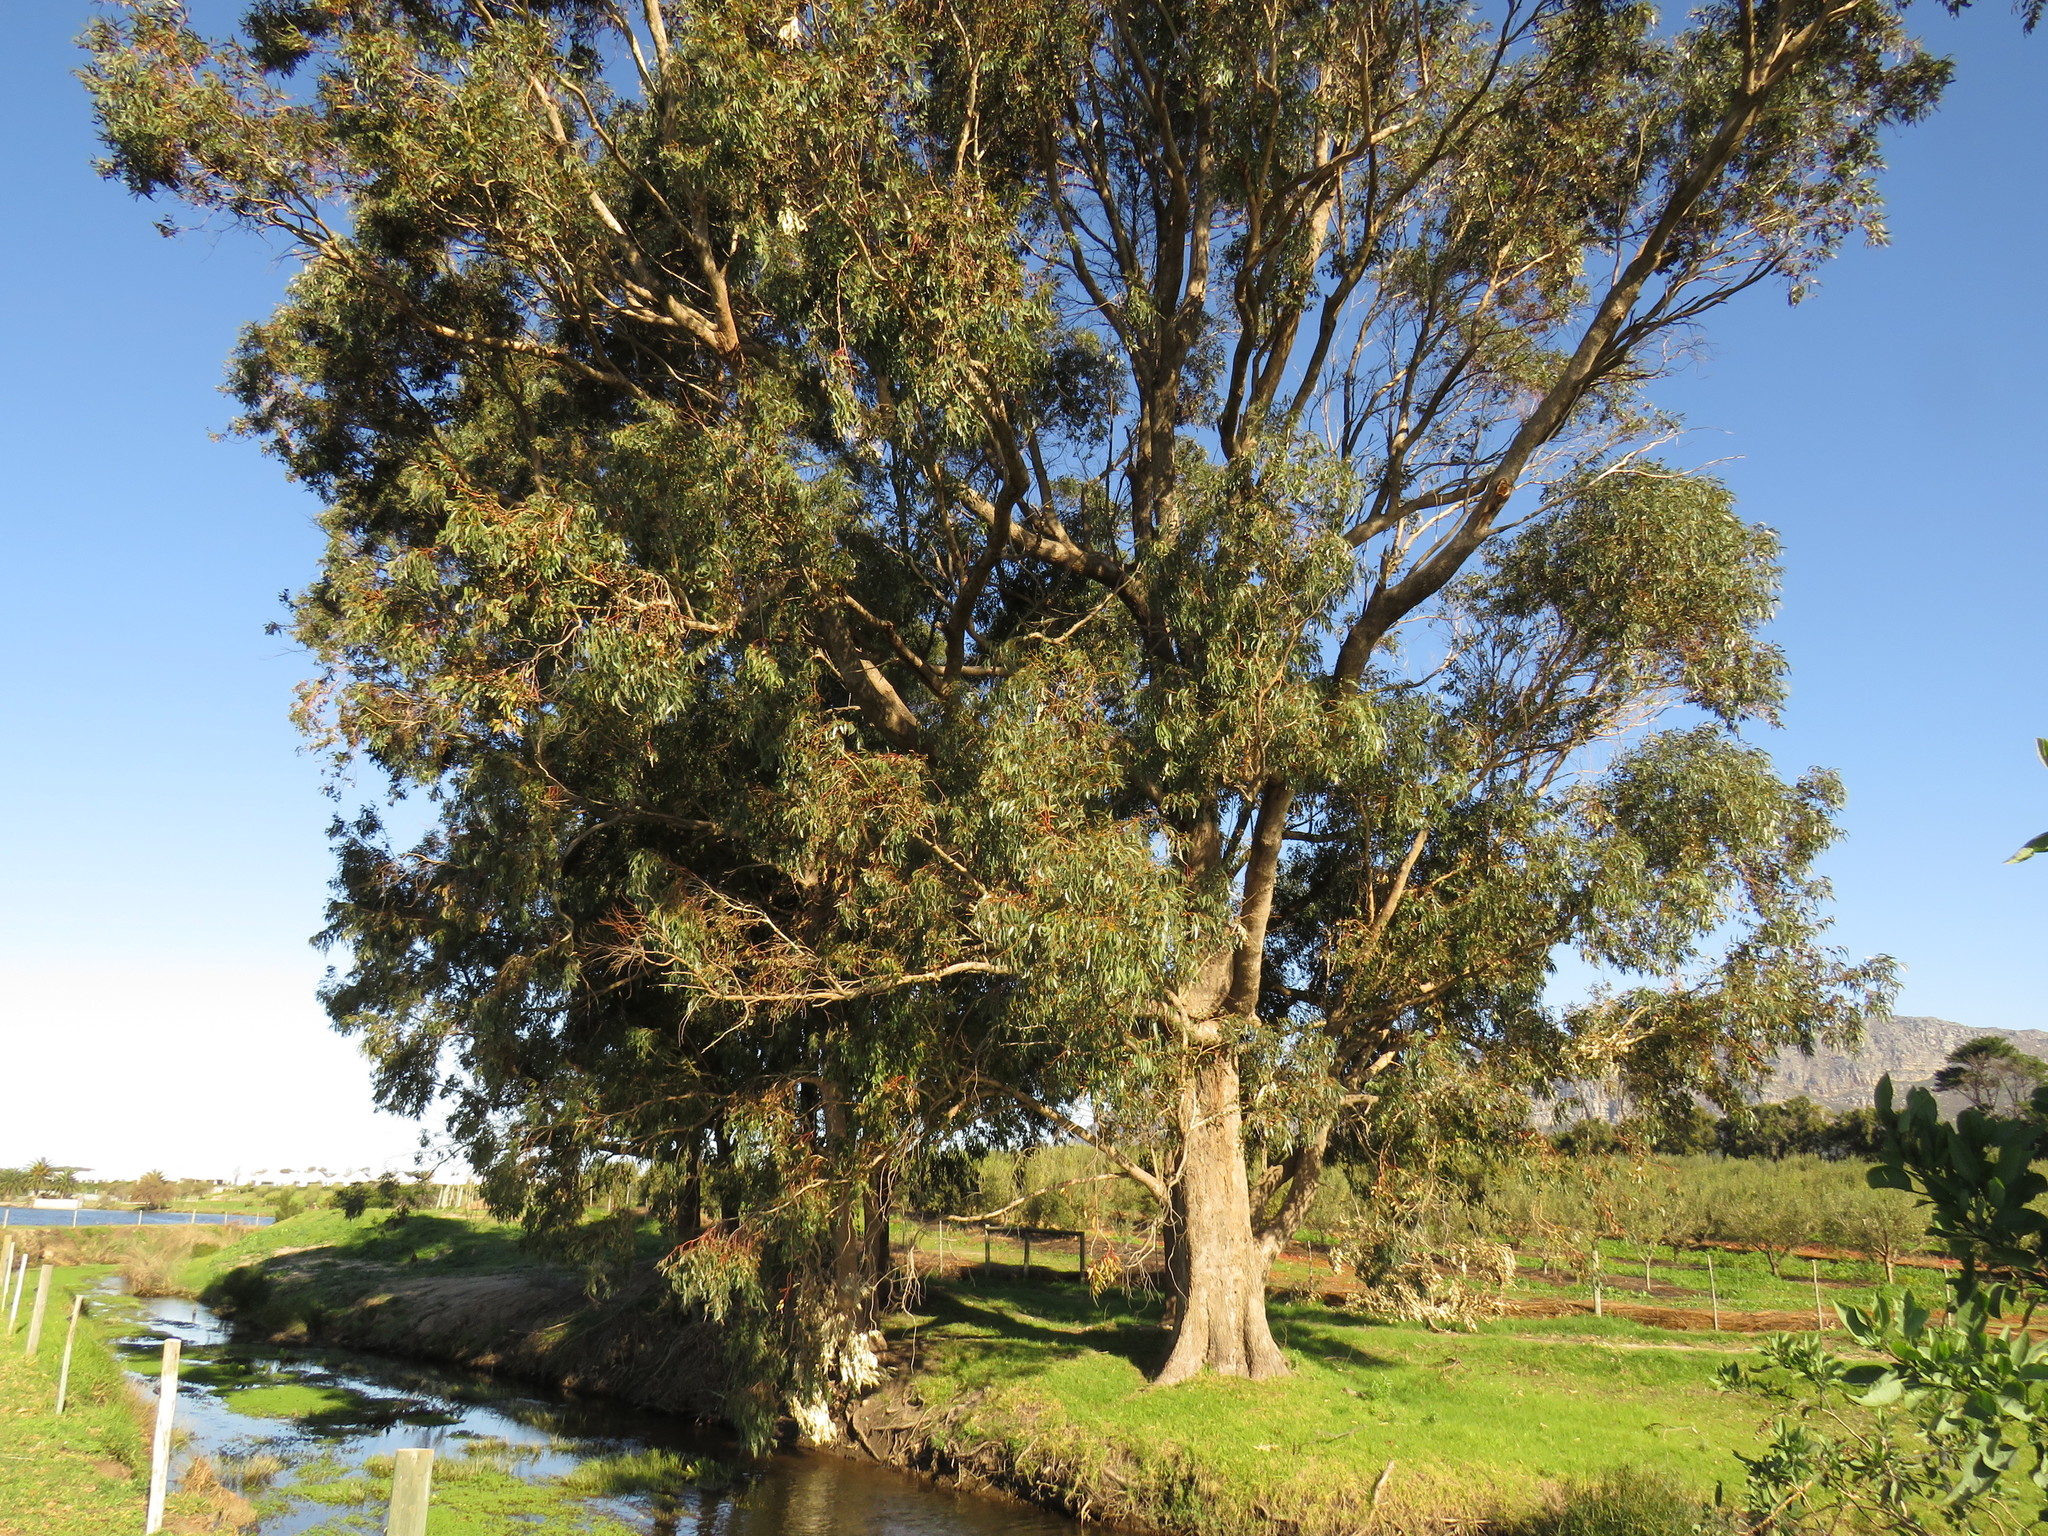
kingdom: Plantae
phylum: Tracheophyta
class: Magnoliopsida
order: Myrtales
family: Myrtaceae
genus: Eucalyptus
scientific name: Eucalyptus gomphocephala
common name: Tuart
